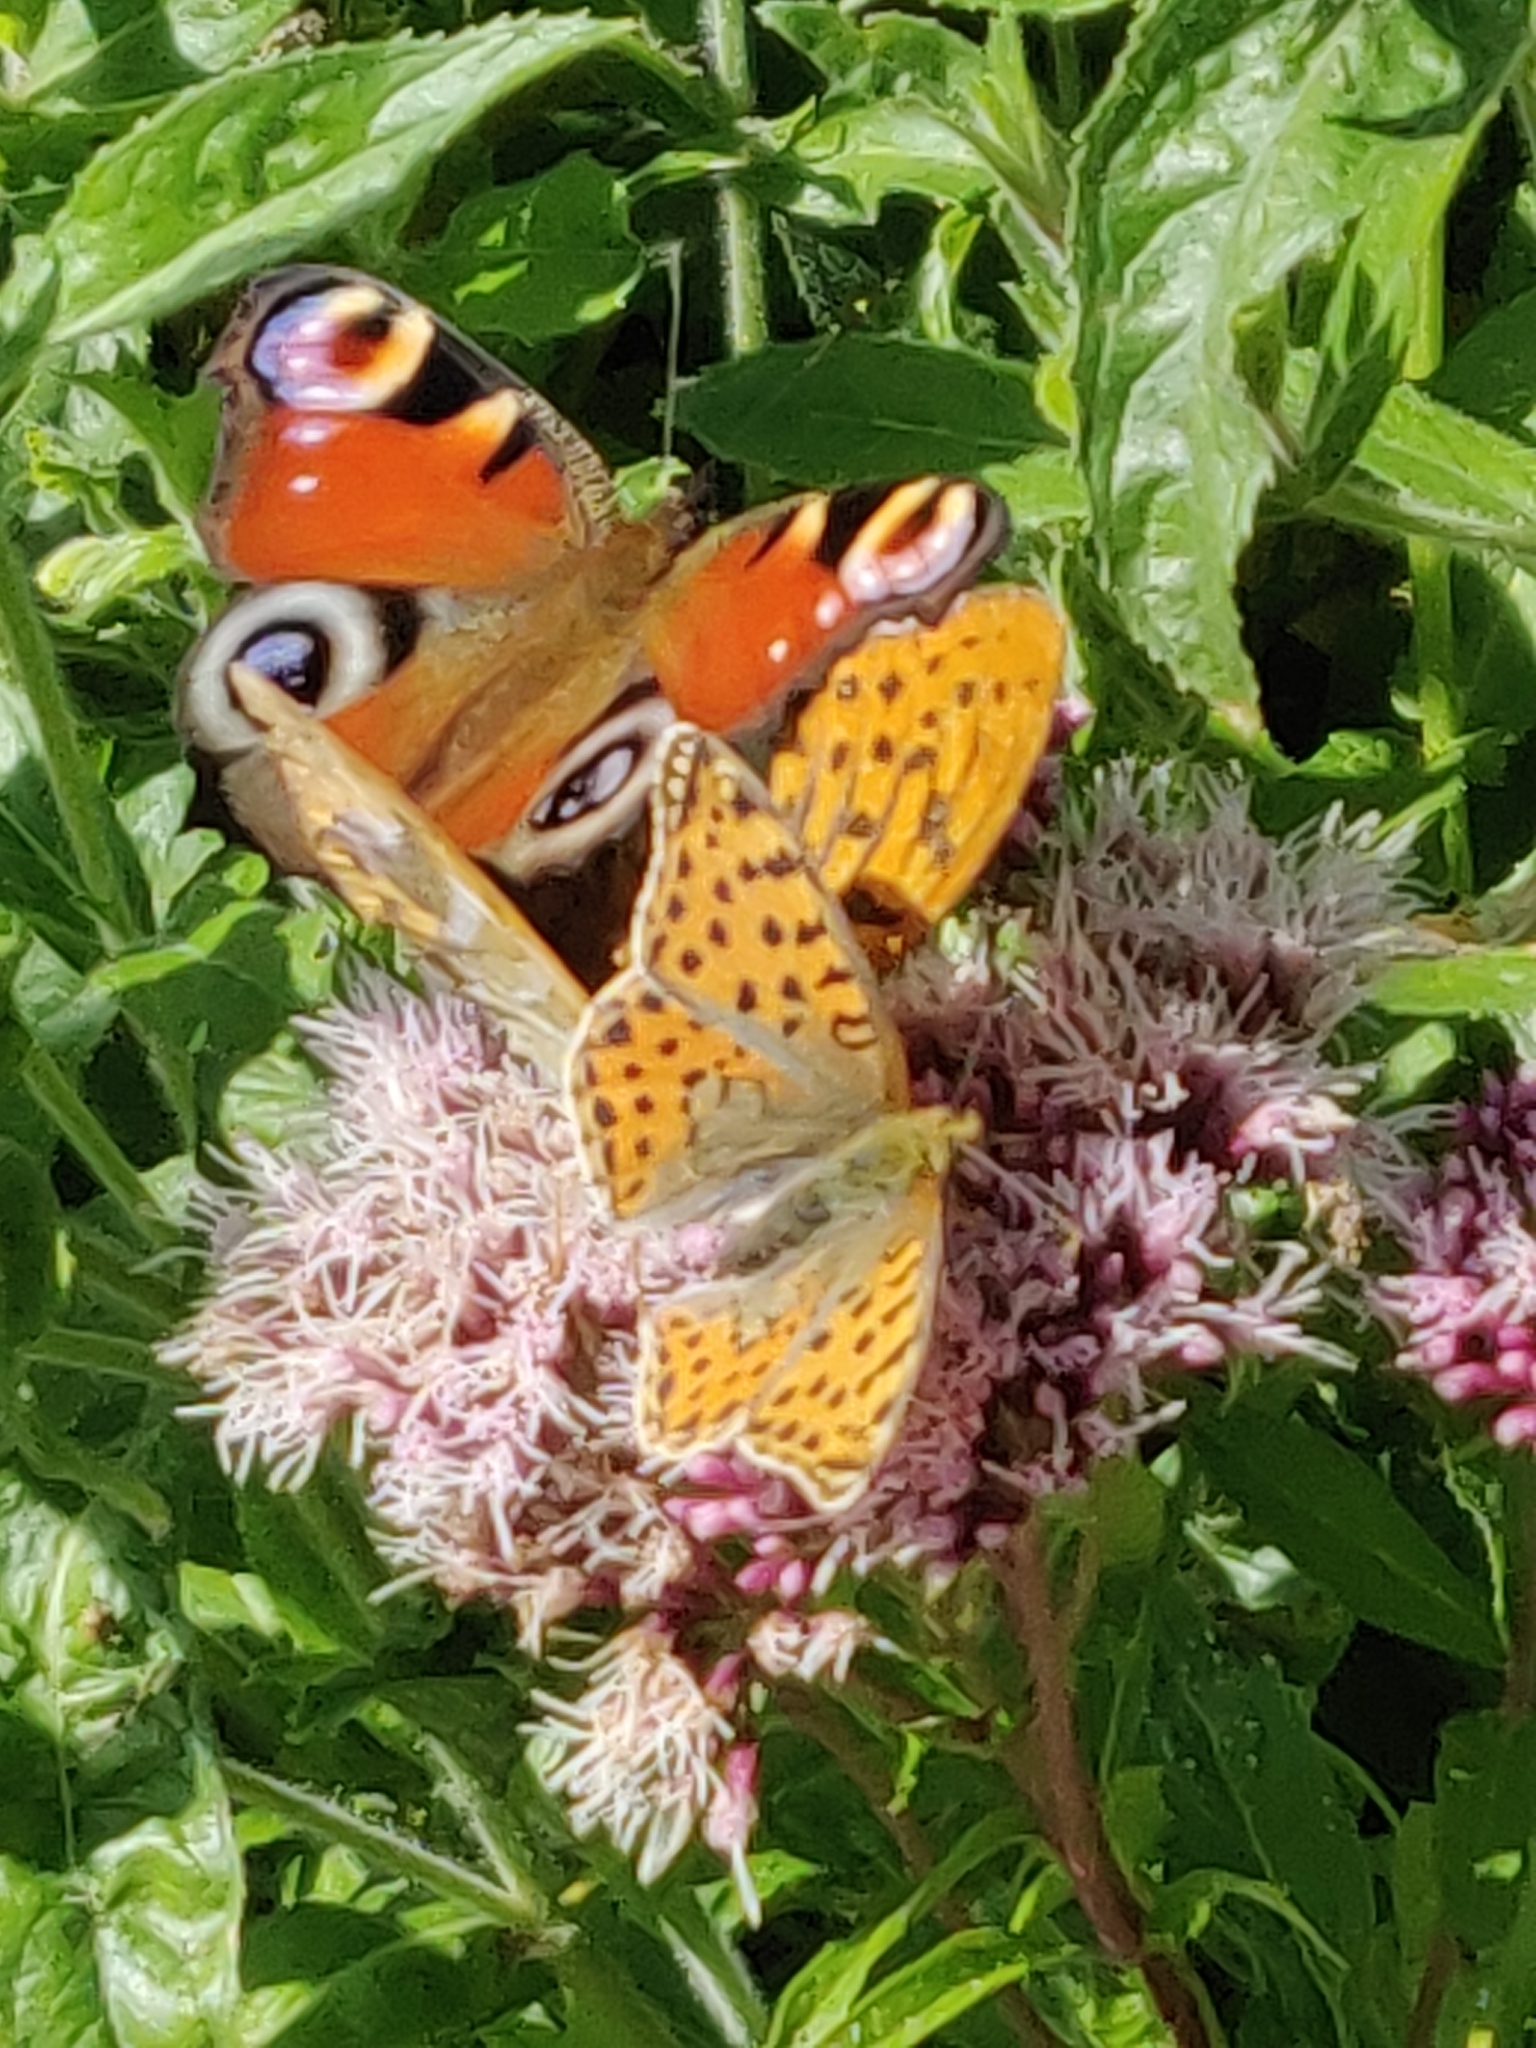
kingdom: Animalia
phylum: Arthropoda
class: Insecta
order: Lepidoptera
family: Nymphalidae
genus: Aglais
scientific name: Aglais io
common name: Peacock
